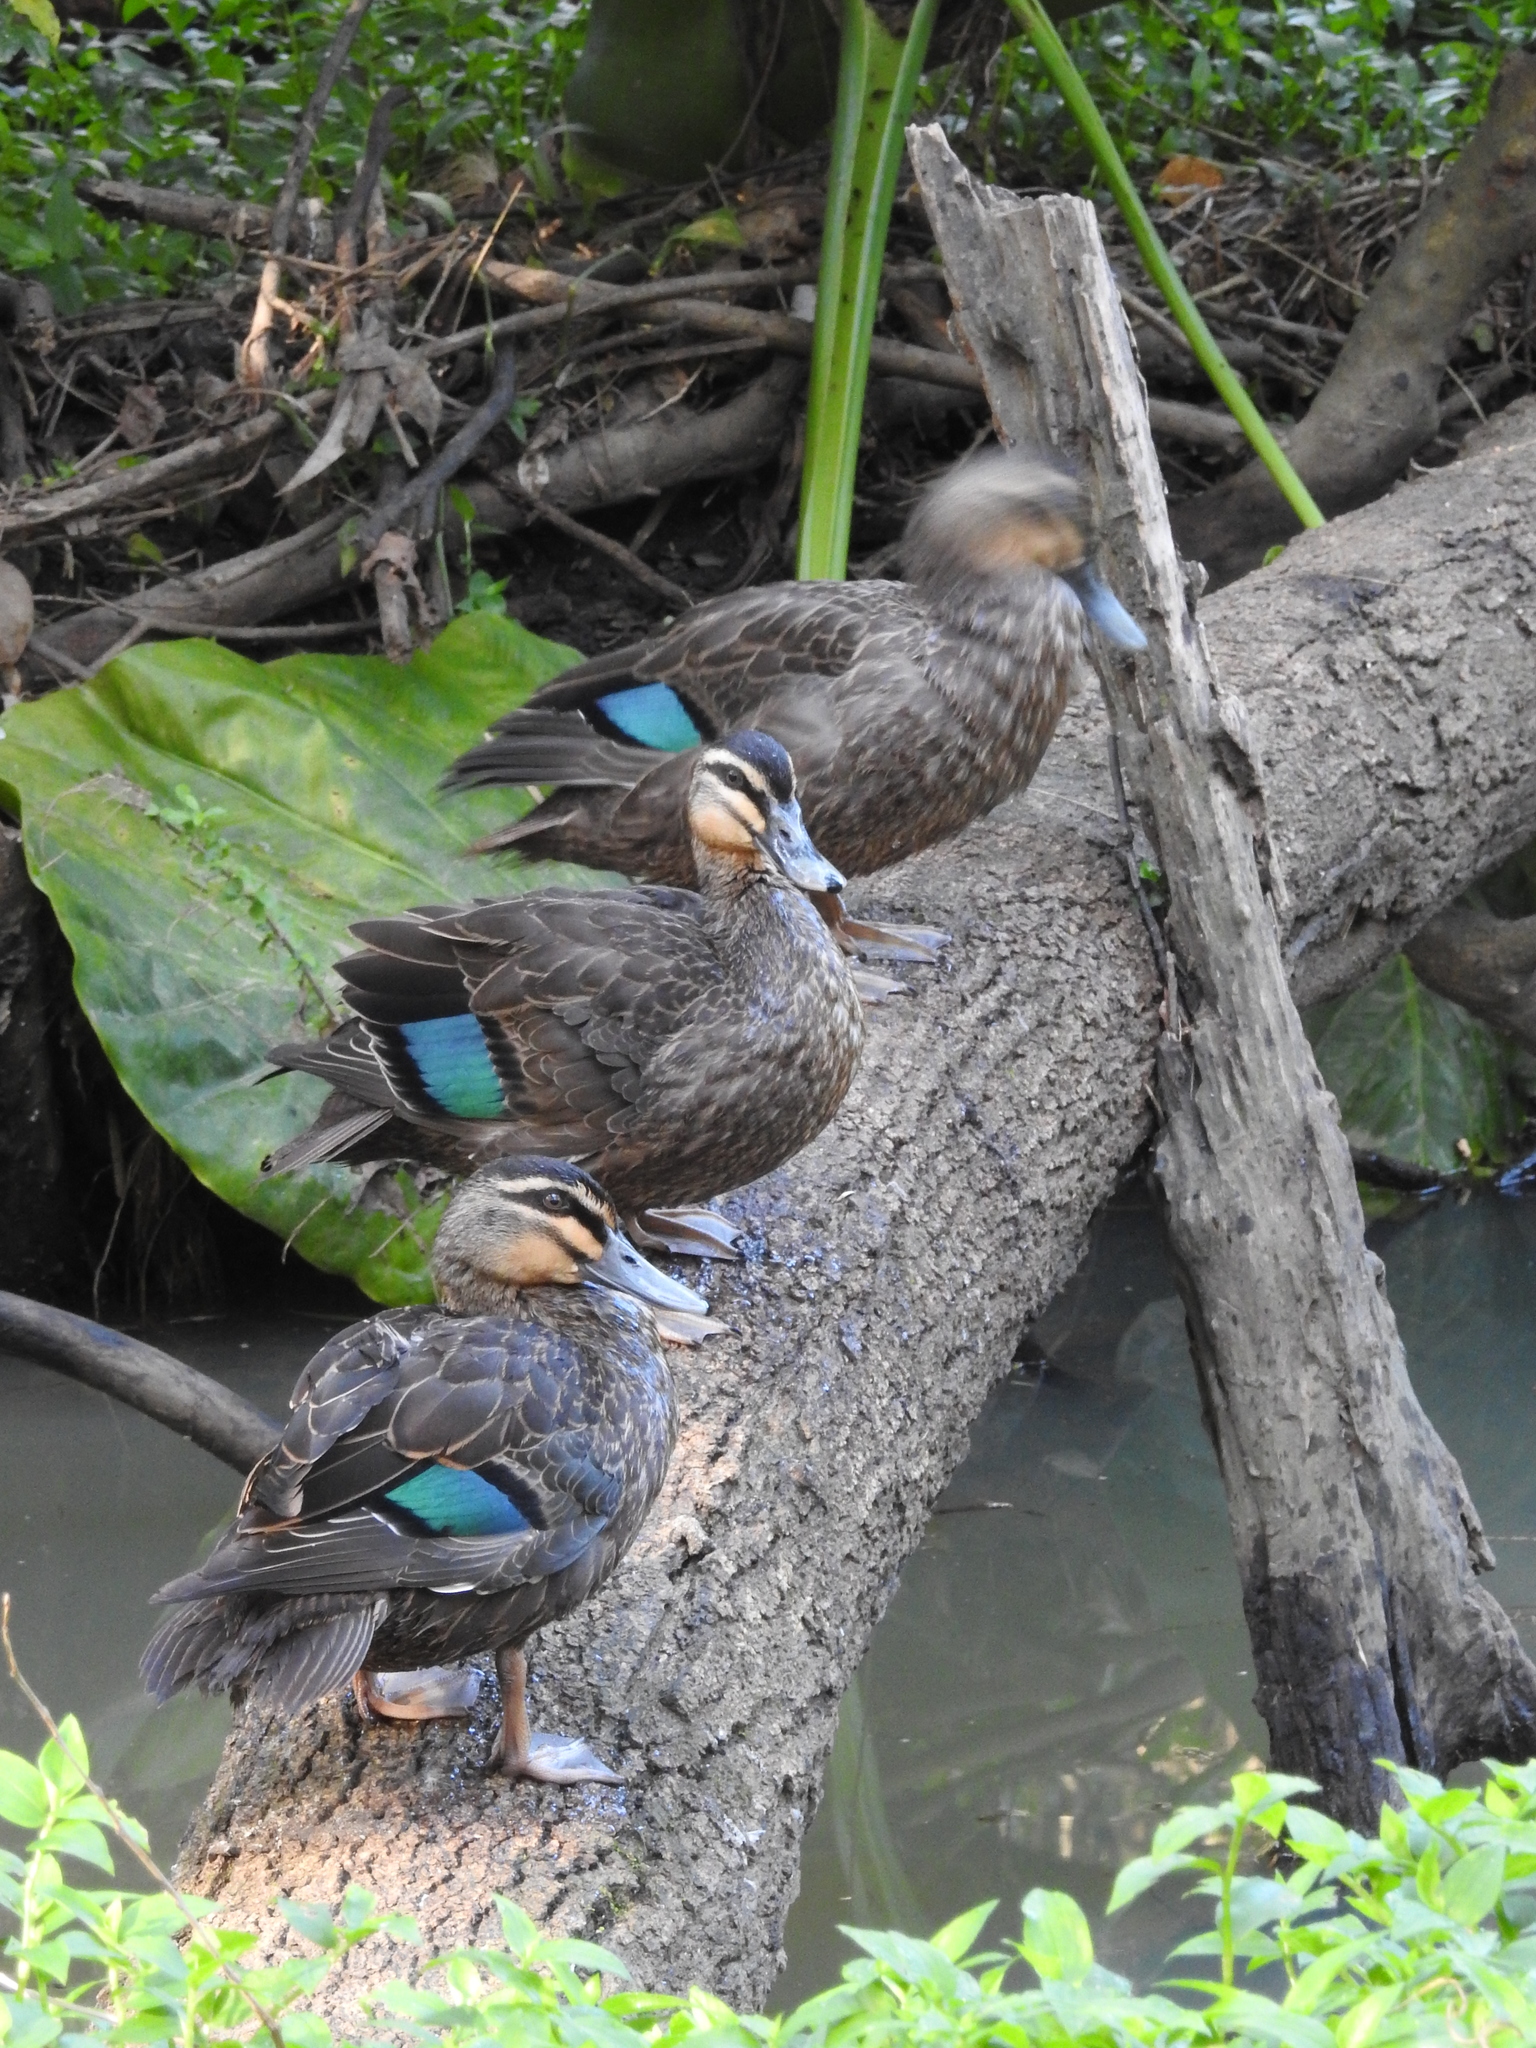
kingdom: Animalia
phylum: Chordata
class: Aves
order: Anseriformes
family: Anatidae
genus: Anas
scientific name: Anas superciliosa
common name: Pacific black duck
